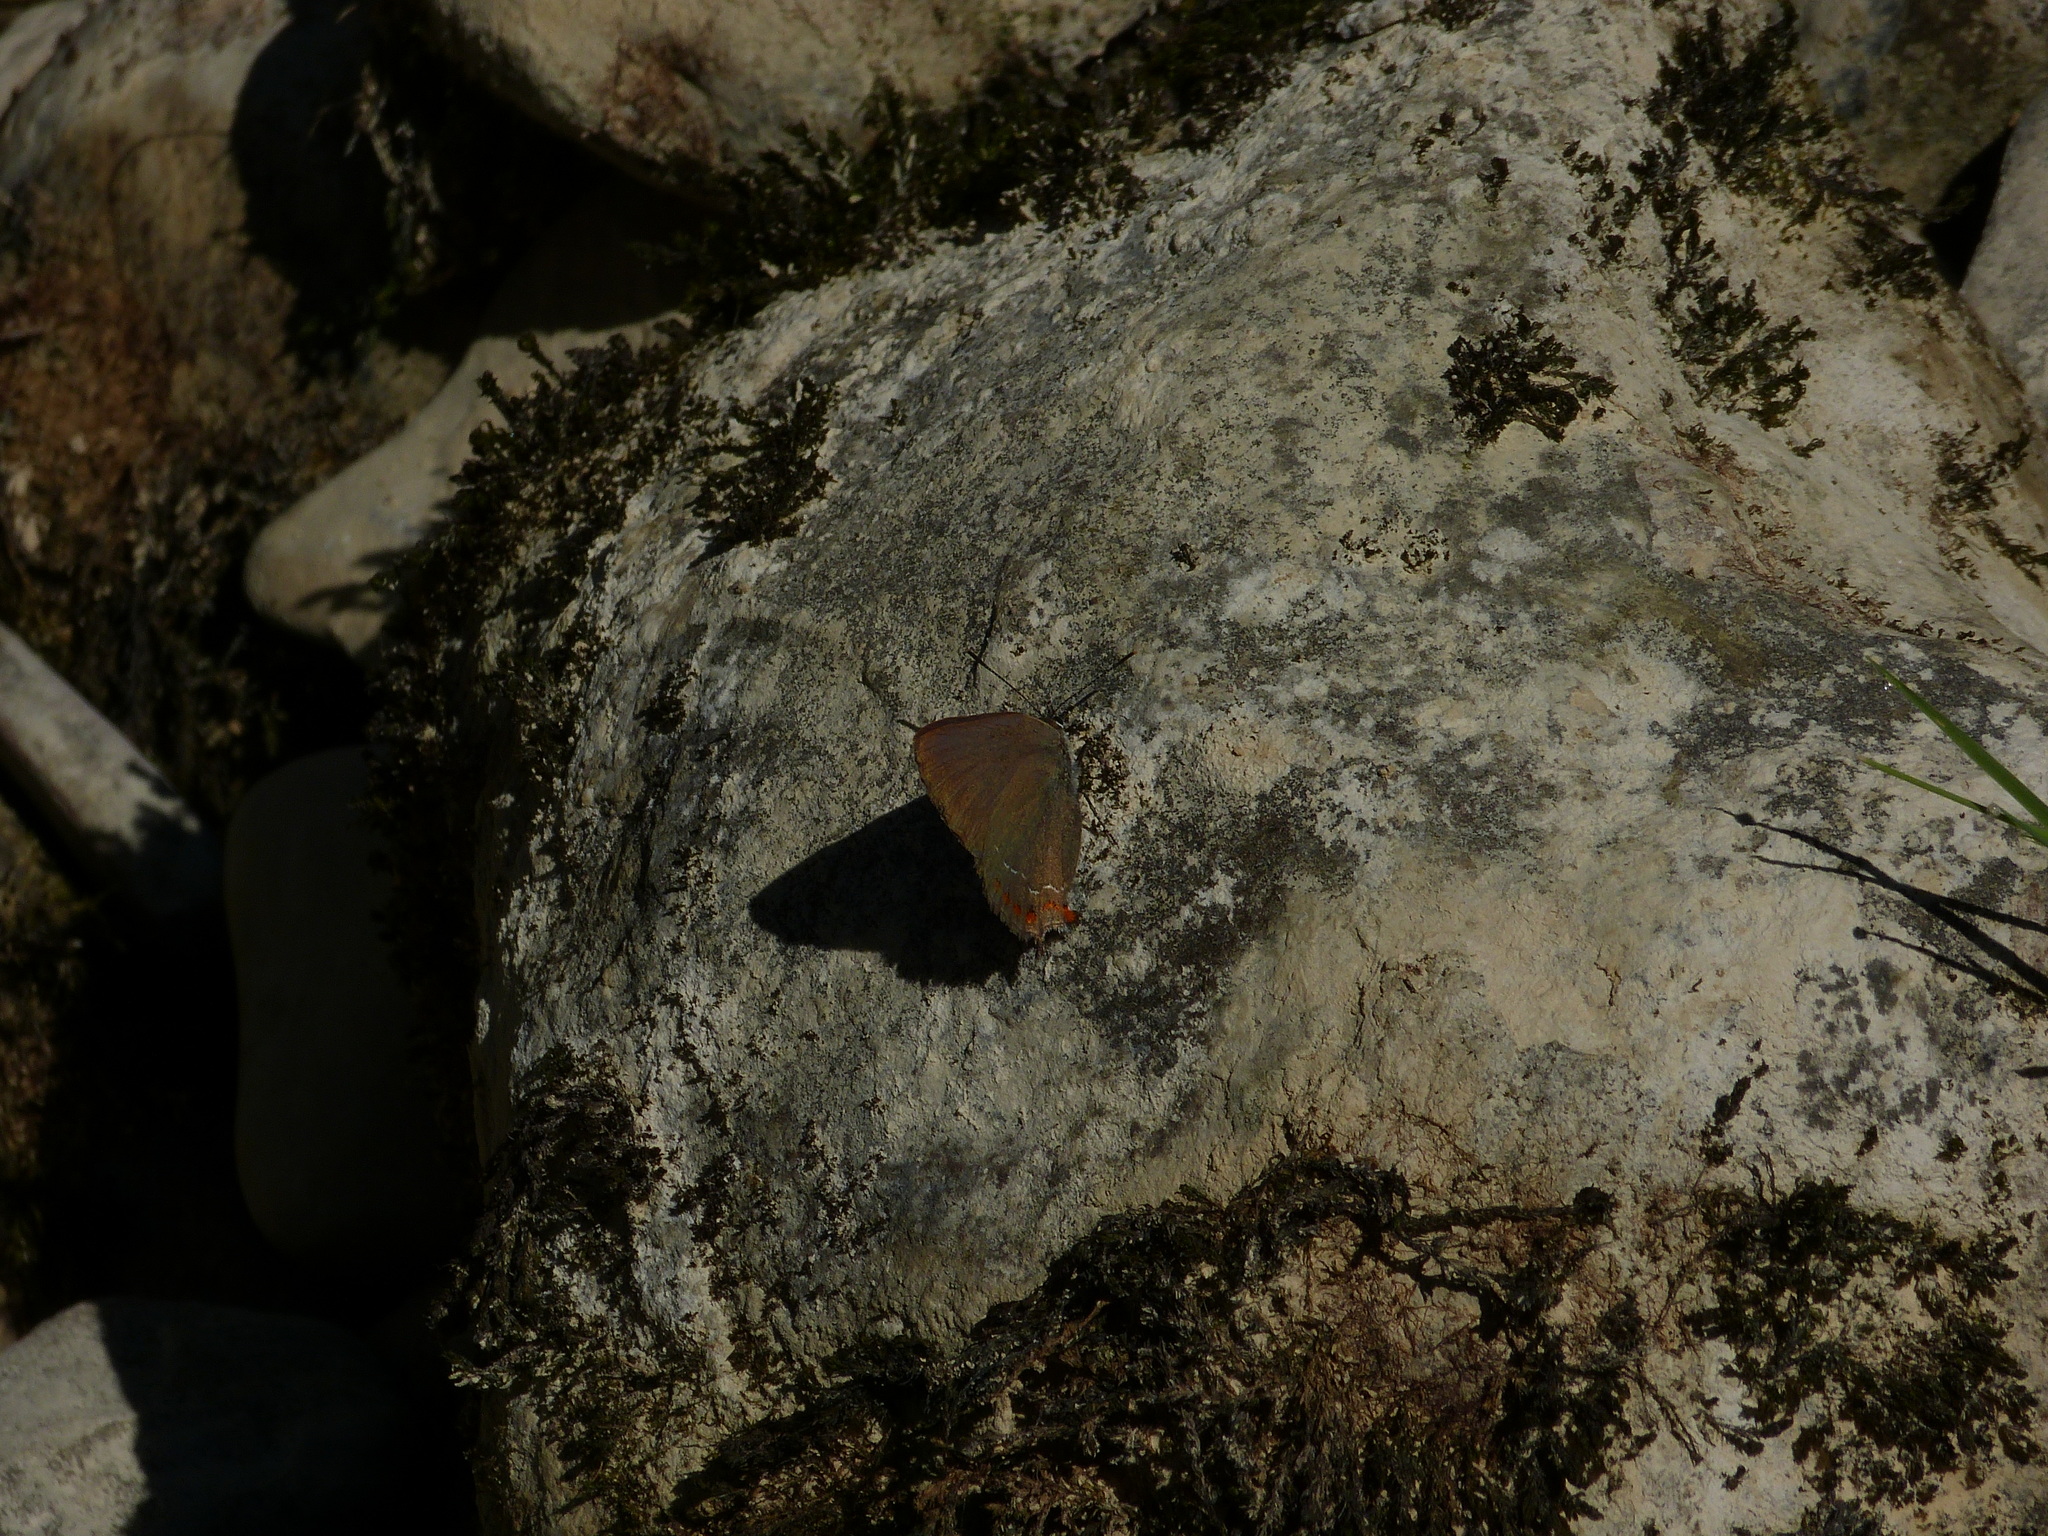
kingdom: Animalia
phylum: Arthropoda
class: Insecta
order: Lepidoptera
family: Lycaenidae
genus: Fixsenia
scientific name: Fixsenia esculi
